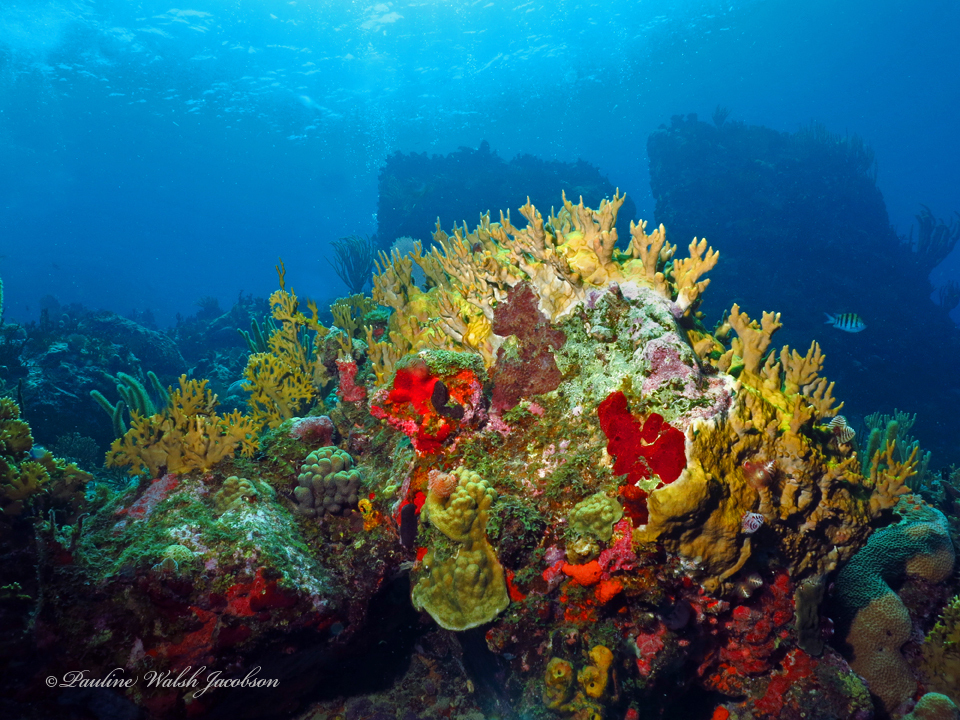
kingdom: Animalia
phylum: Cnidaria
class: Hydrozoa
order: Anthoathecata
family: Milleporidae
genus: Millepora
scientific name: Millepora alcicornis
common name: Branching fire coral
